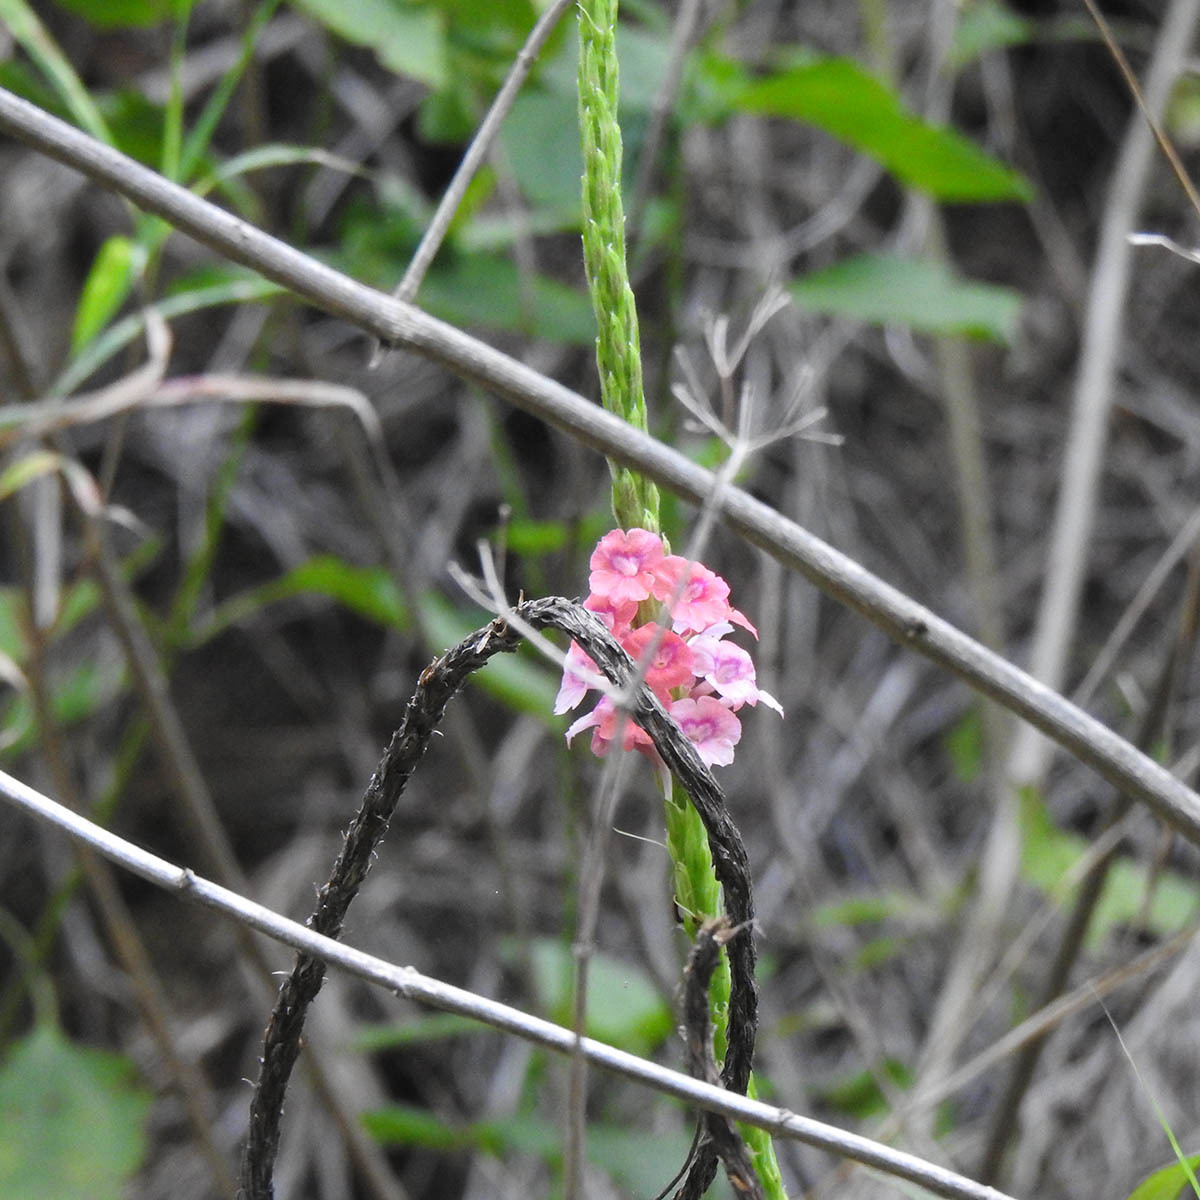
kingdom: Plantae
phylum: Tracheophyta
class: Magnoliopsida
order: Lamiales
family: Verbenaceae
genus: Stachytarpheta
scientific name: Stachytarpheta mutabilis
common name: Changeable velvetberry
